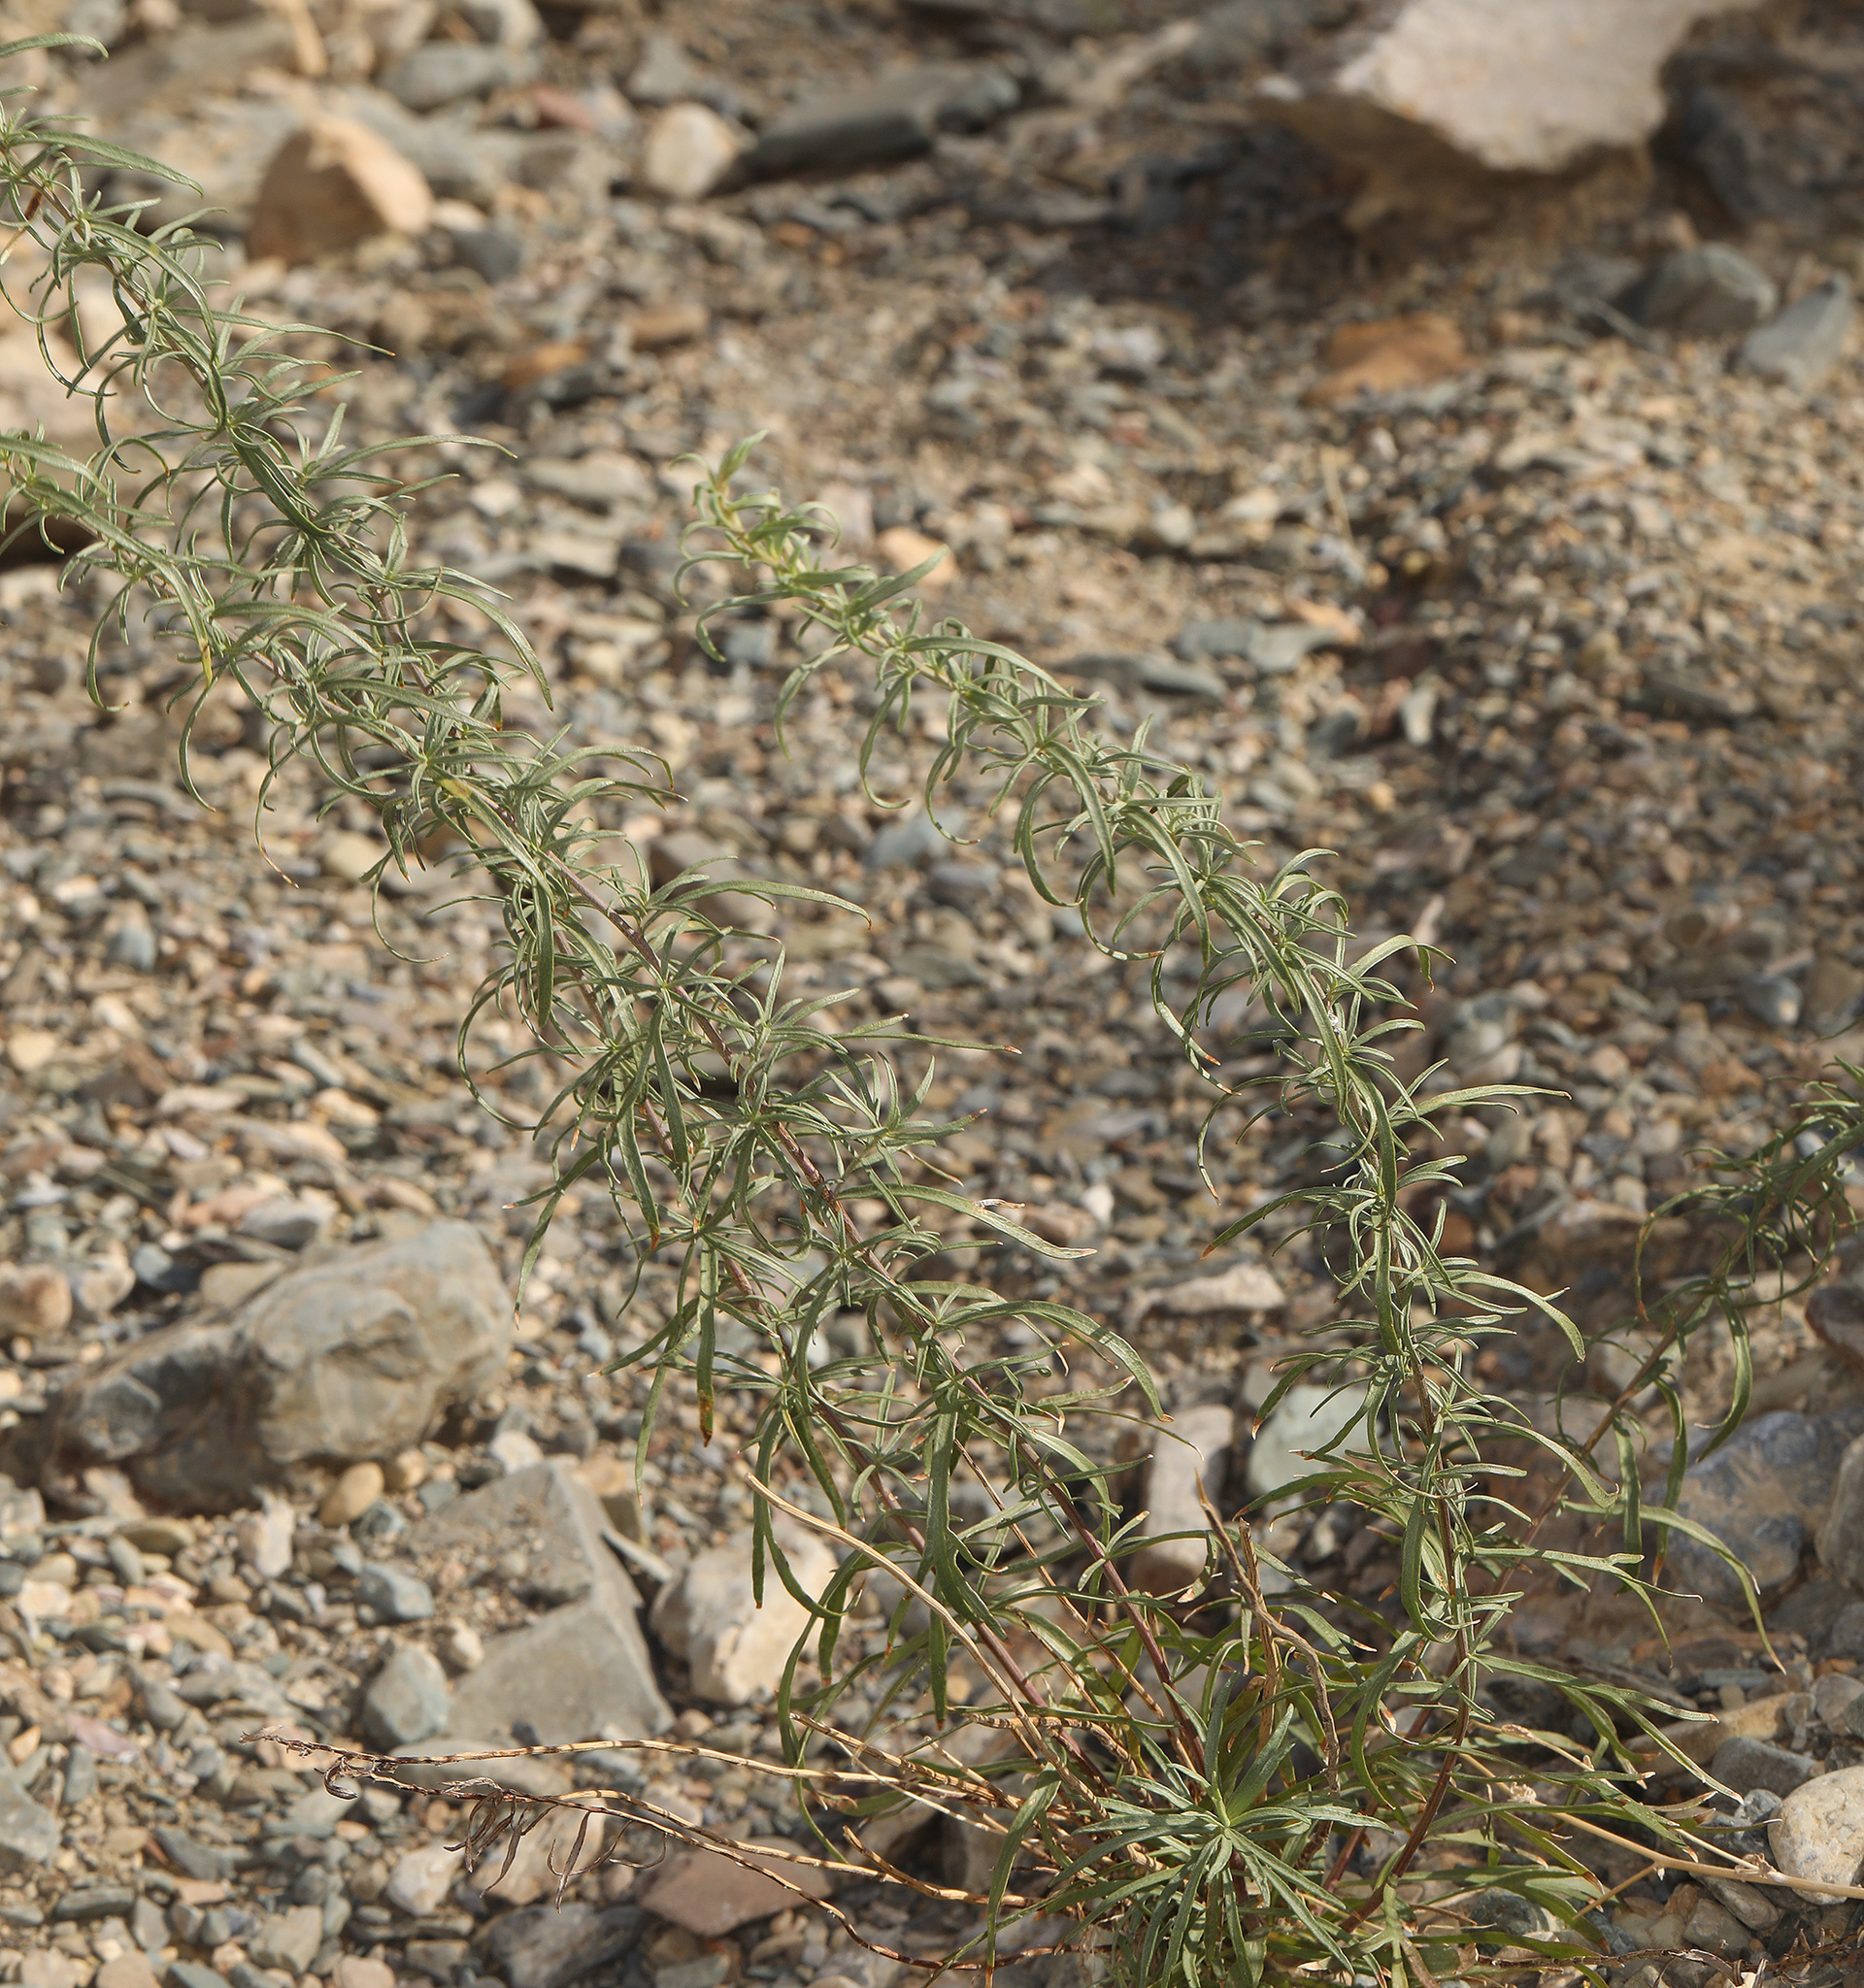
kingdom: Plantae
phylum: Tracheophyta
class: Magnoliopsida
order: Asterales
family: Asteraceae
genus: Artemisia
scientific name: Artemisia dracunculus
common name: Tarragon
